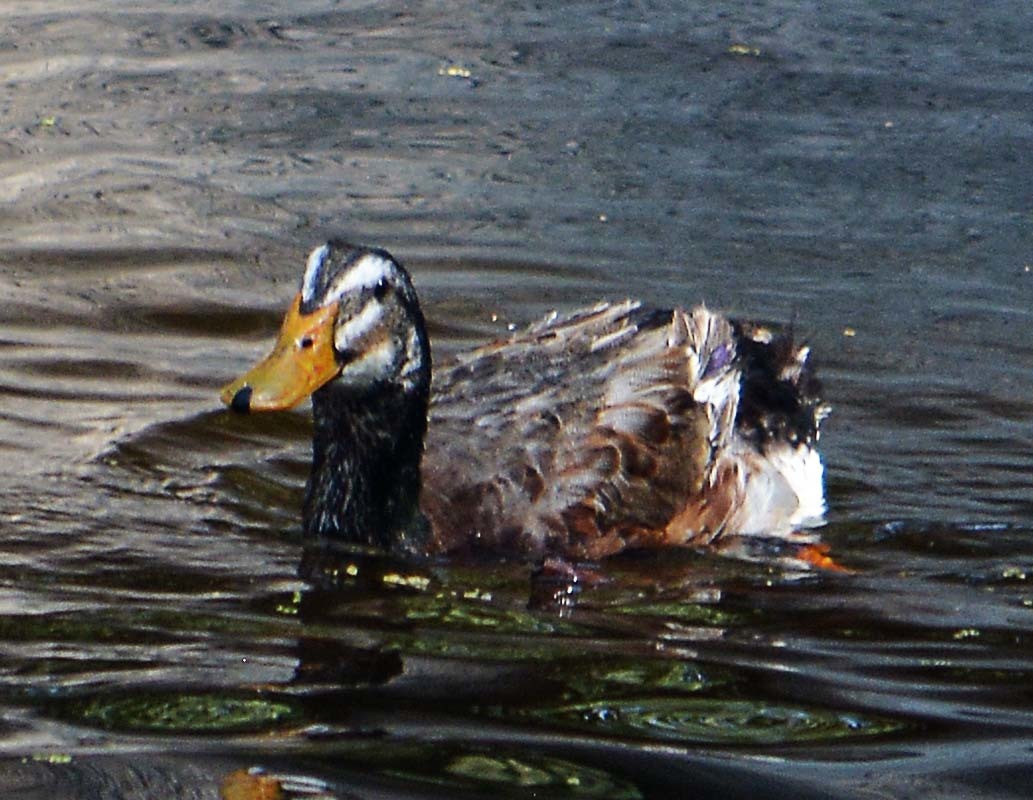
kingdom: Animalia
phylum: Chordata
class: Aves
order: Anseriformes
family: Anatidae
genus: Anas
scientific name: Anas platyrhynchos
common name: Mallard
